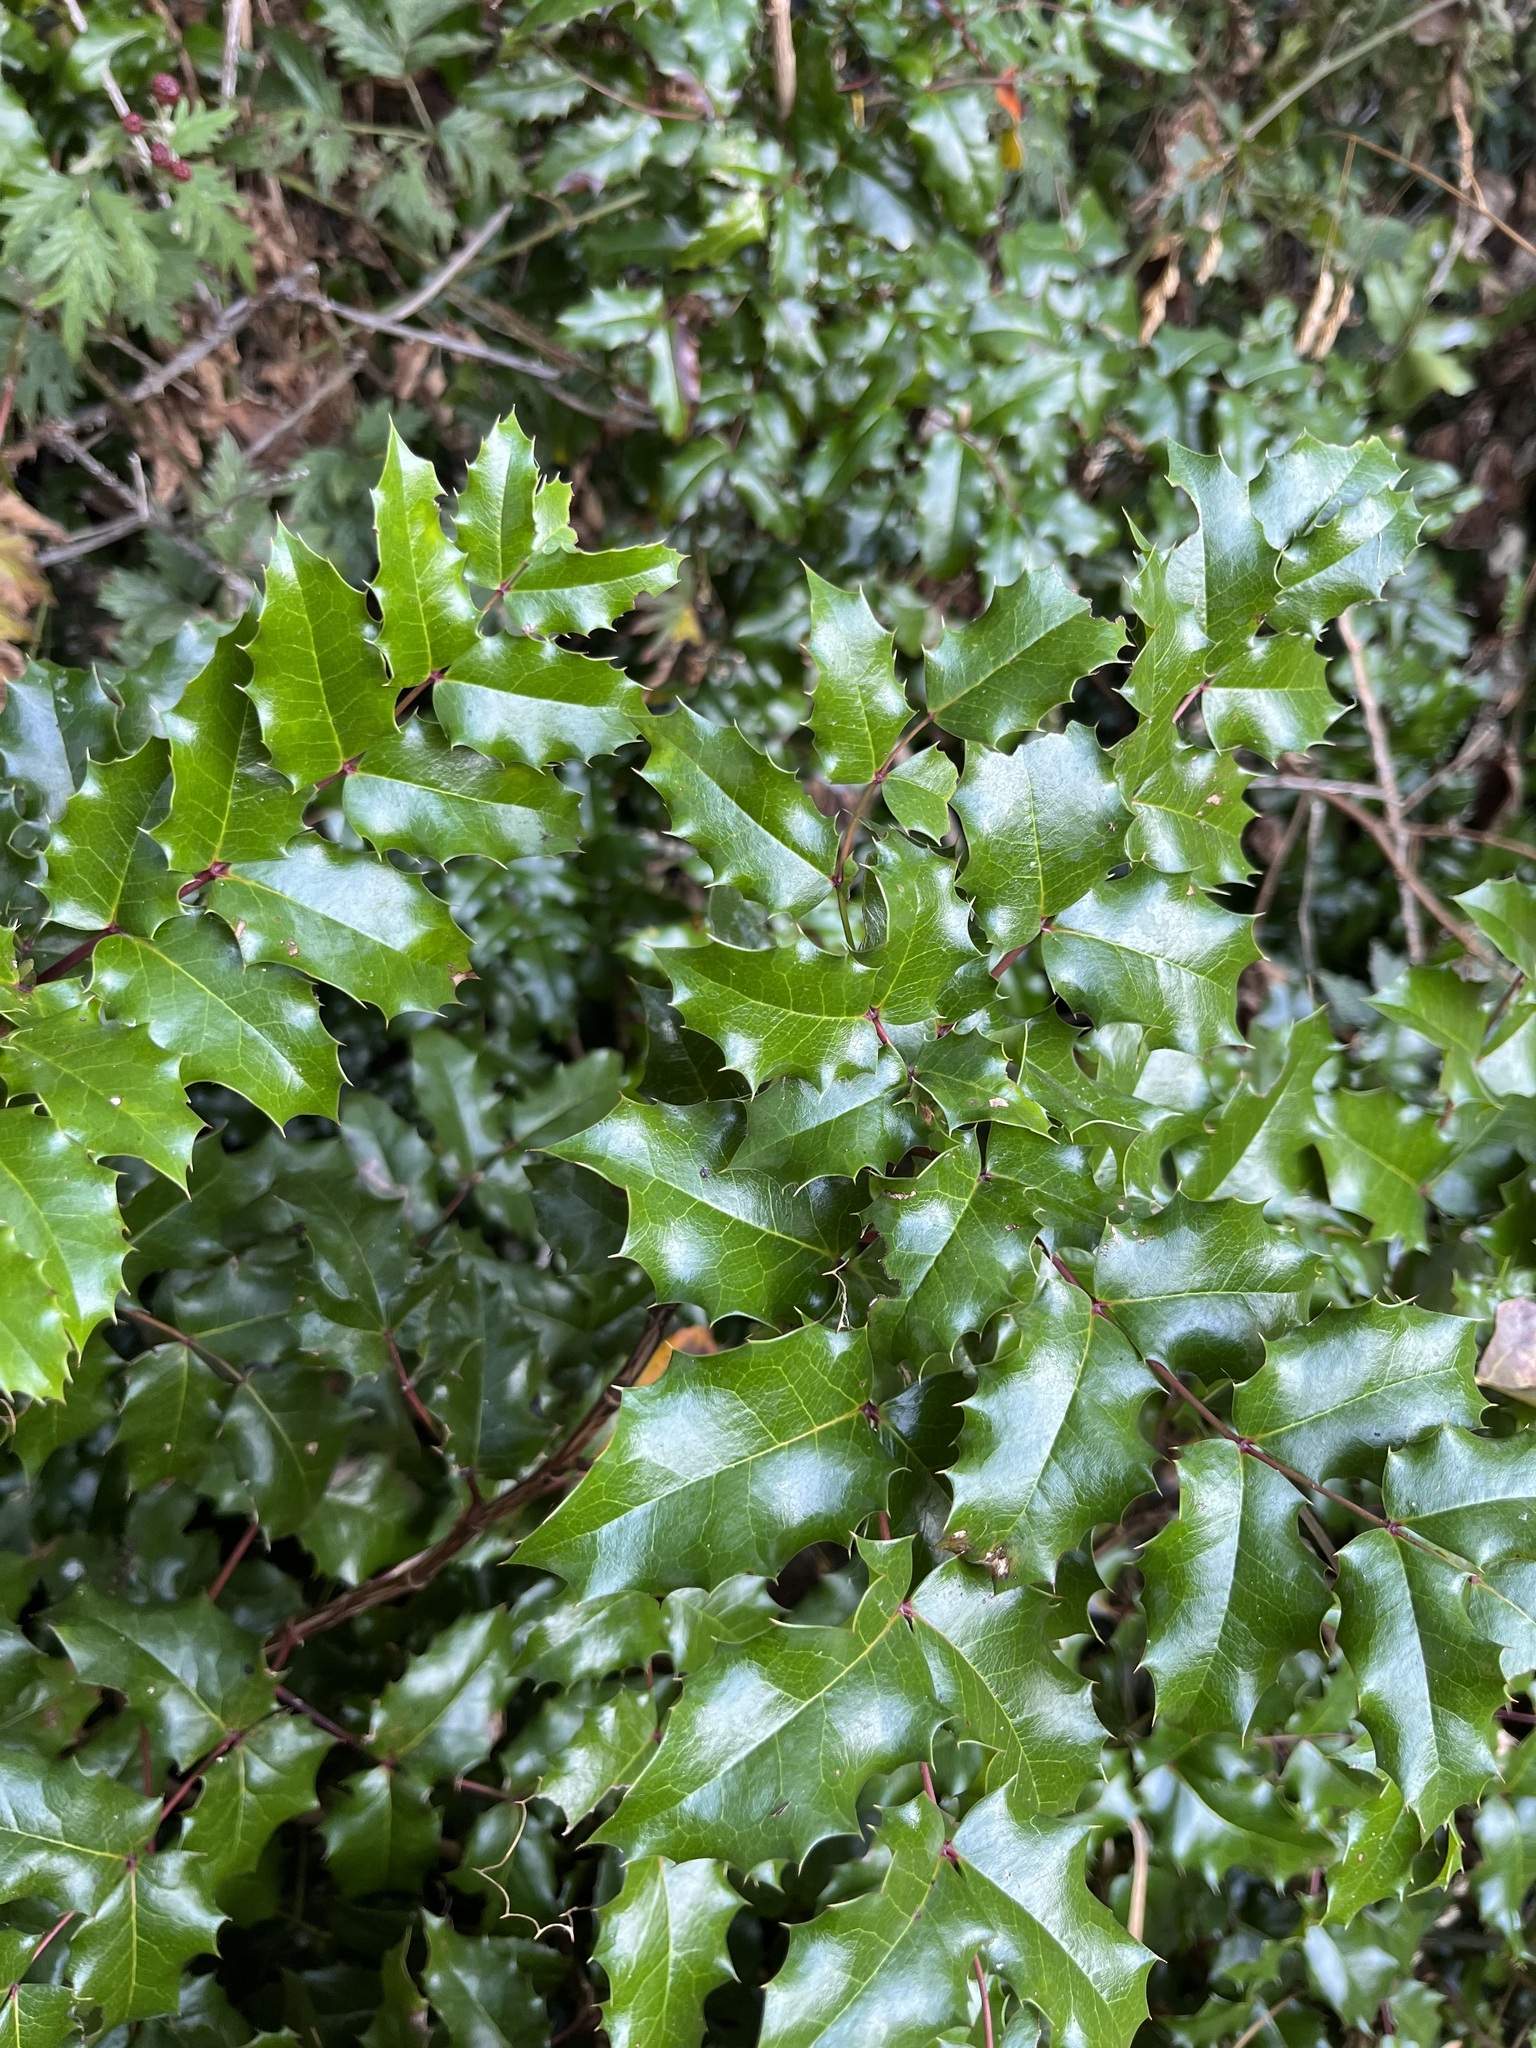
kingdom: Plantae
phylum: Tracheophyta
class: Magnoliopsida
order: Ranunculales
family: Berberidaceae
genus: Mahonia
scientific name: Mahonia aquifolium
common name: Oregon-grape
